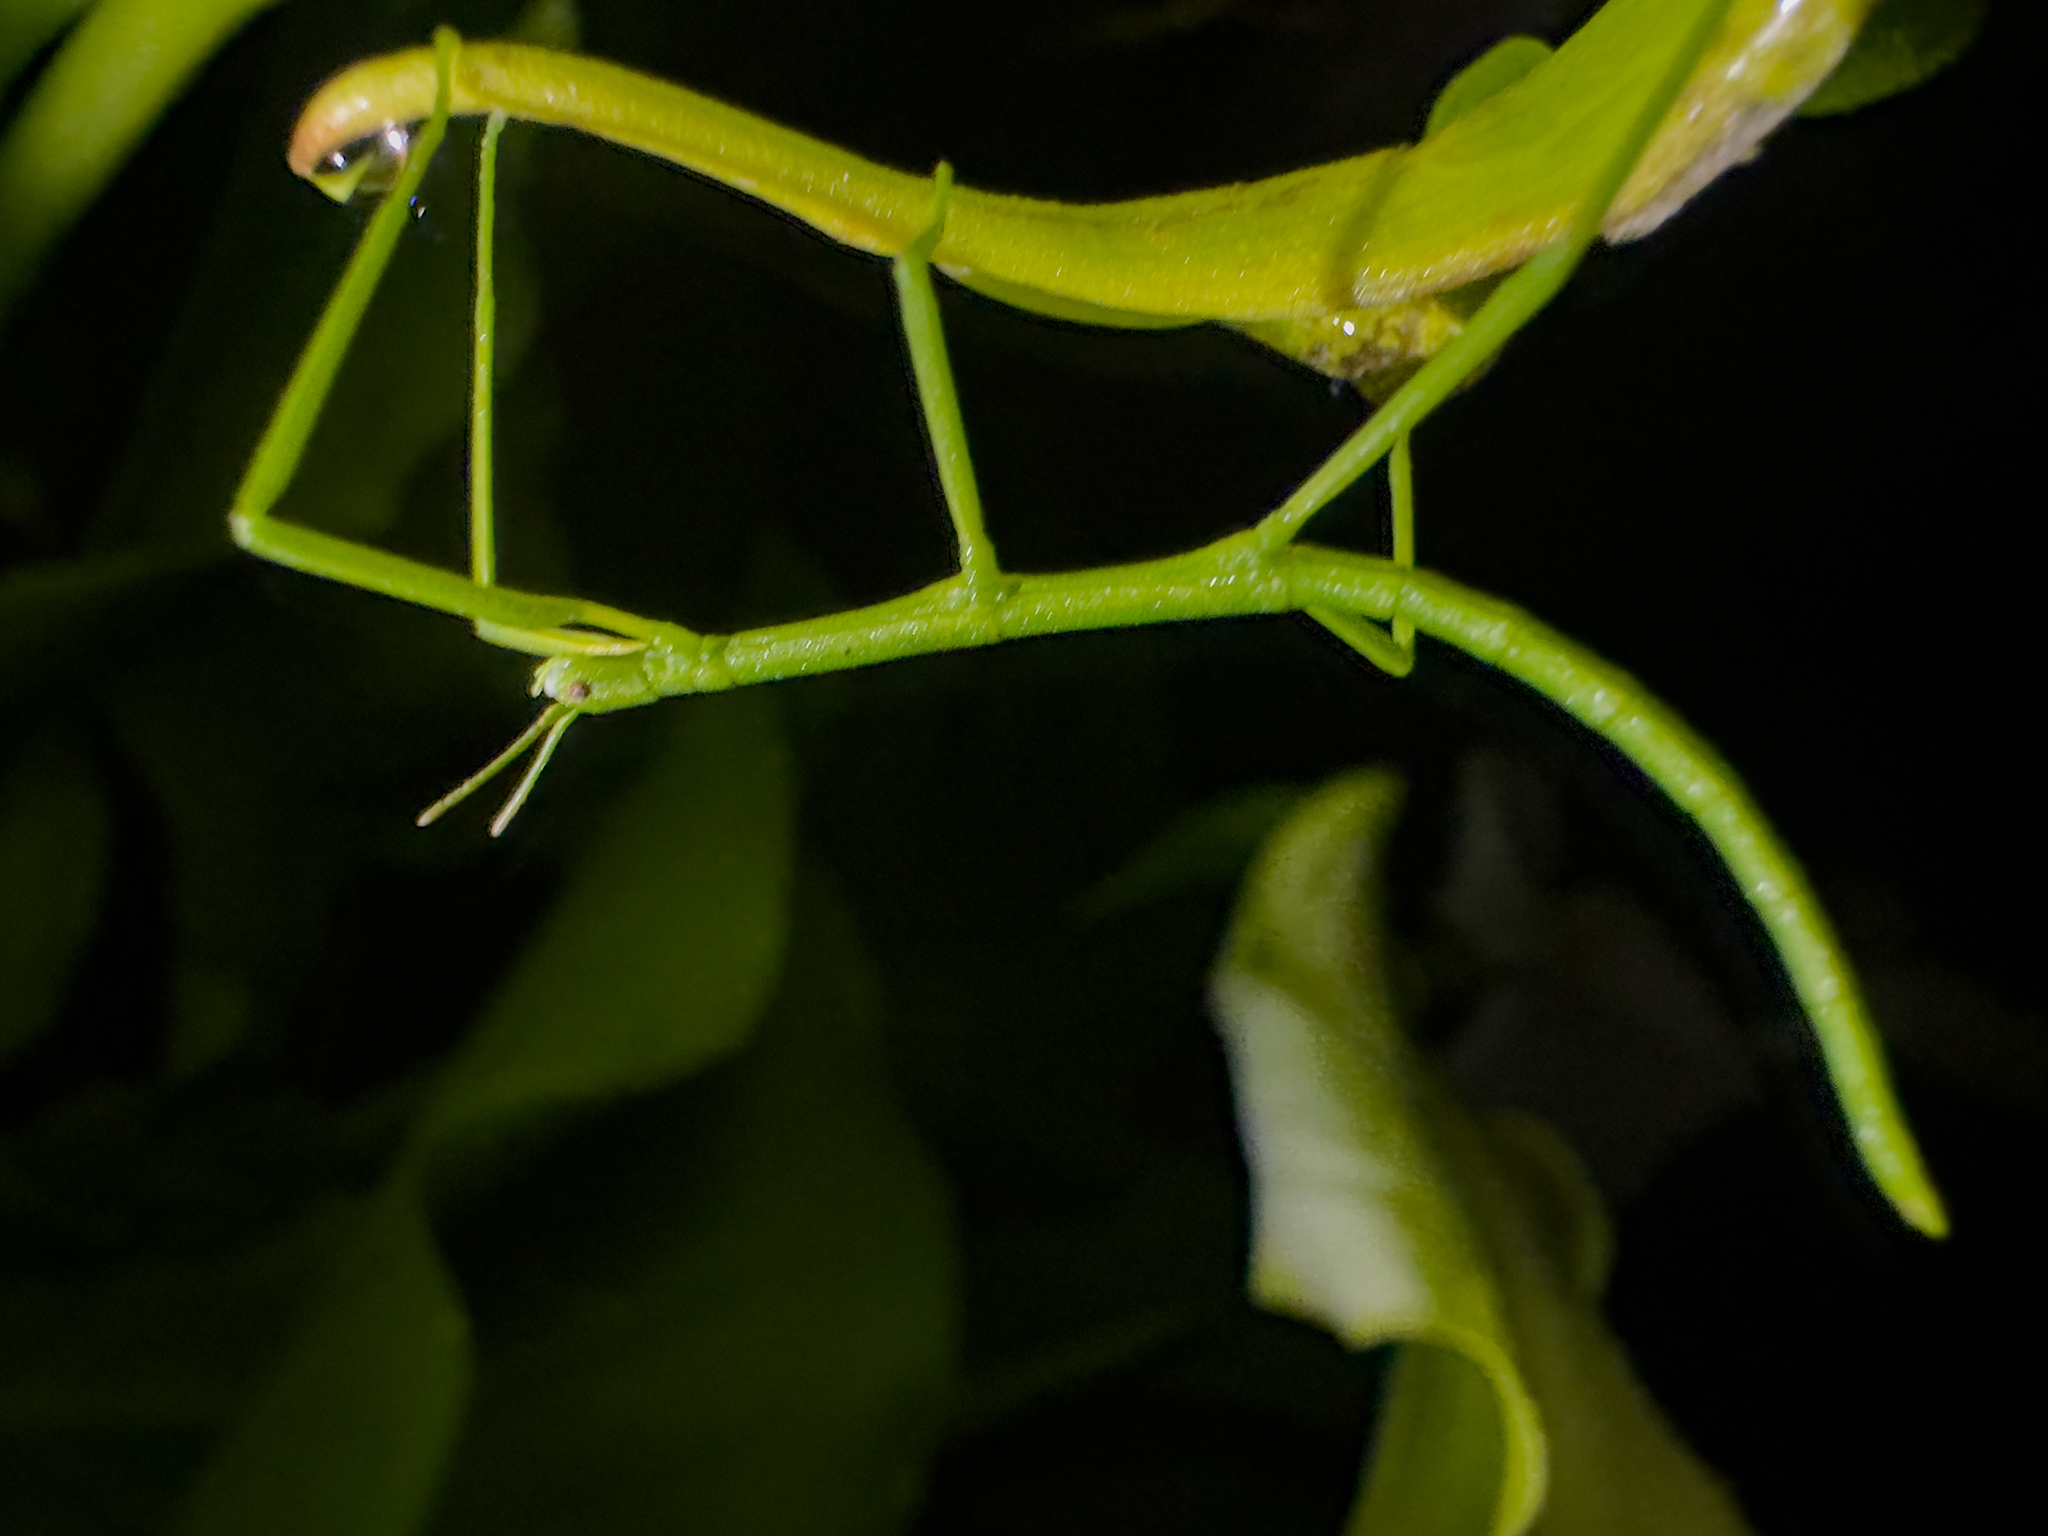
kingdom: Animalia
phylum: Arthropoda
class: Insecta
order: Phasmida
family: Phasmatidae
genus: Clitarchus
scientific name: Clitarchus hookeri
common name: Smooth stick insect
